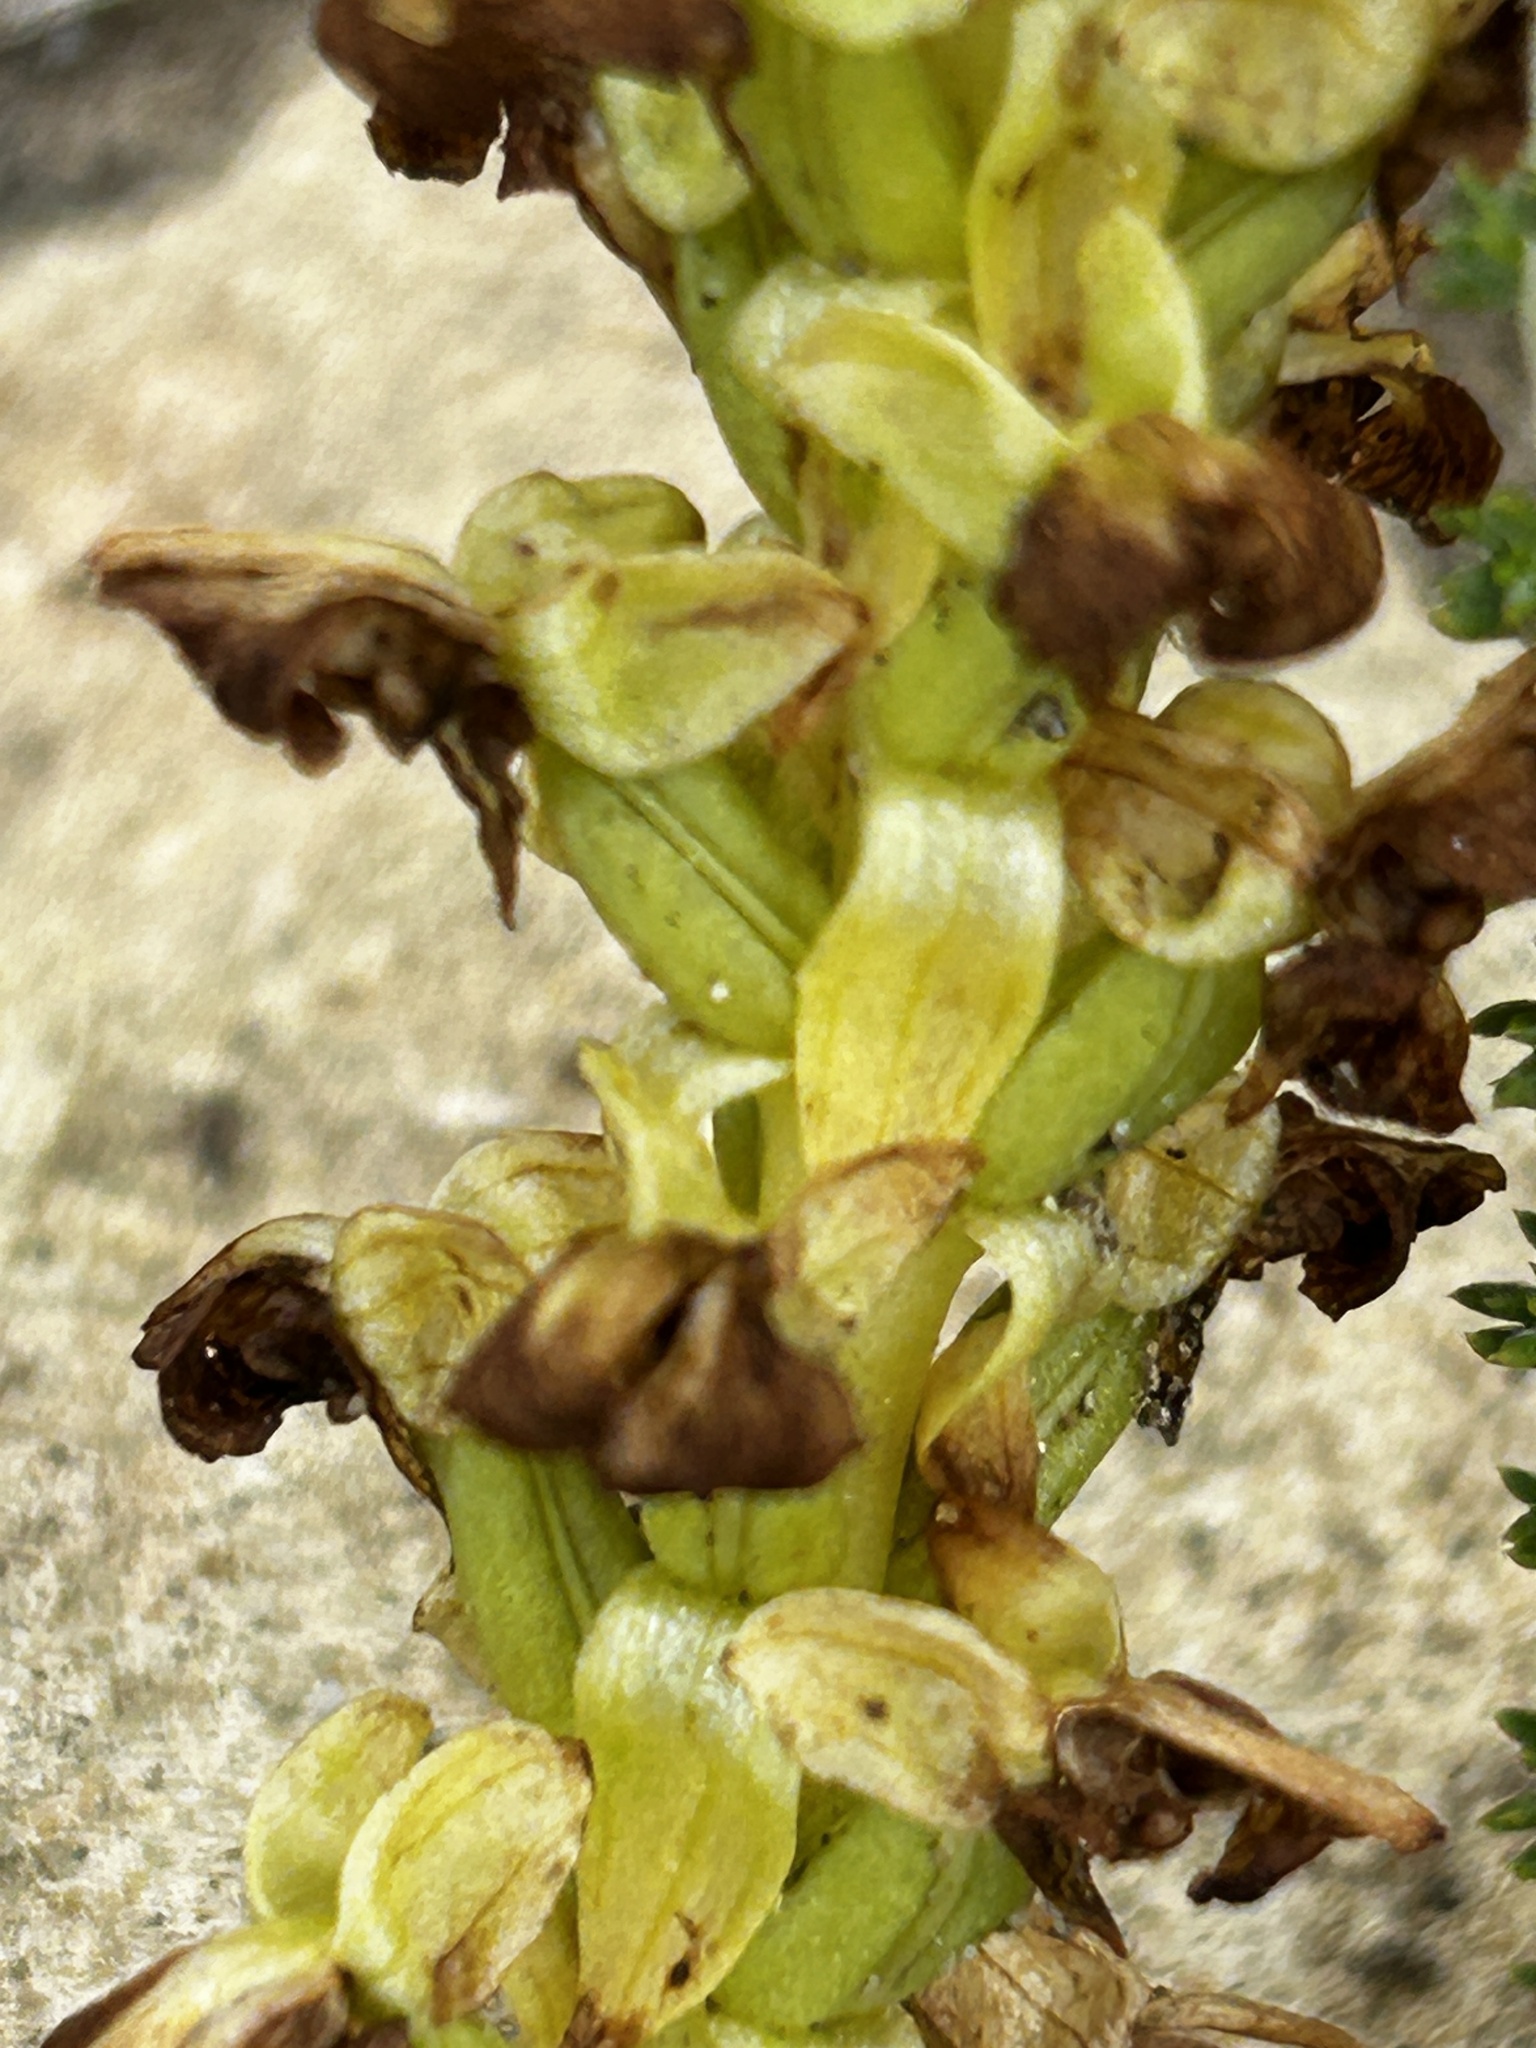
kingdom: Plantae
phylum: Tracheophyta
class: Liliopsida
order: Asparagales
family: Orchidaceae
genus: Pterygodium
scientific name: Pterygodium volucris
